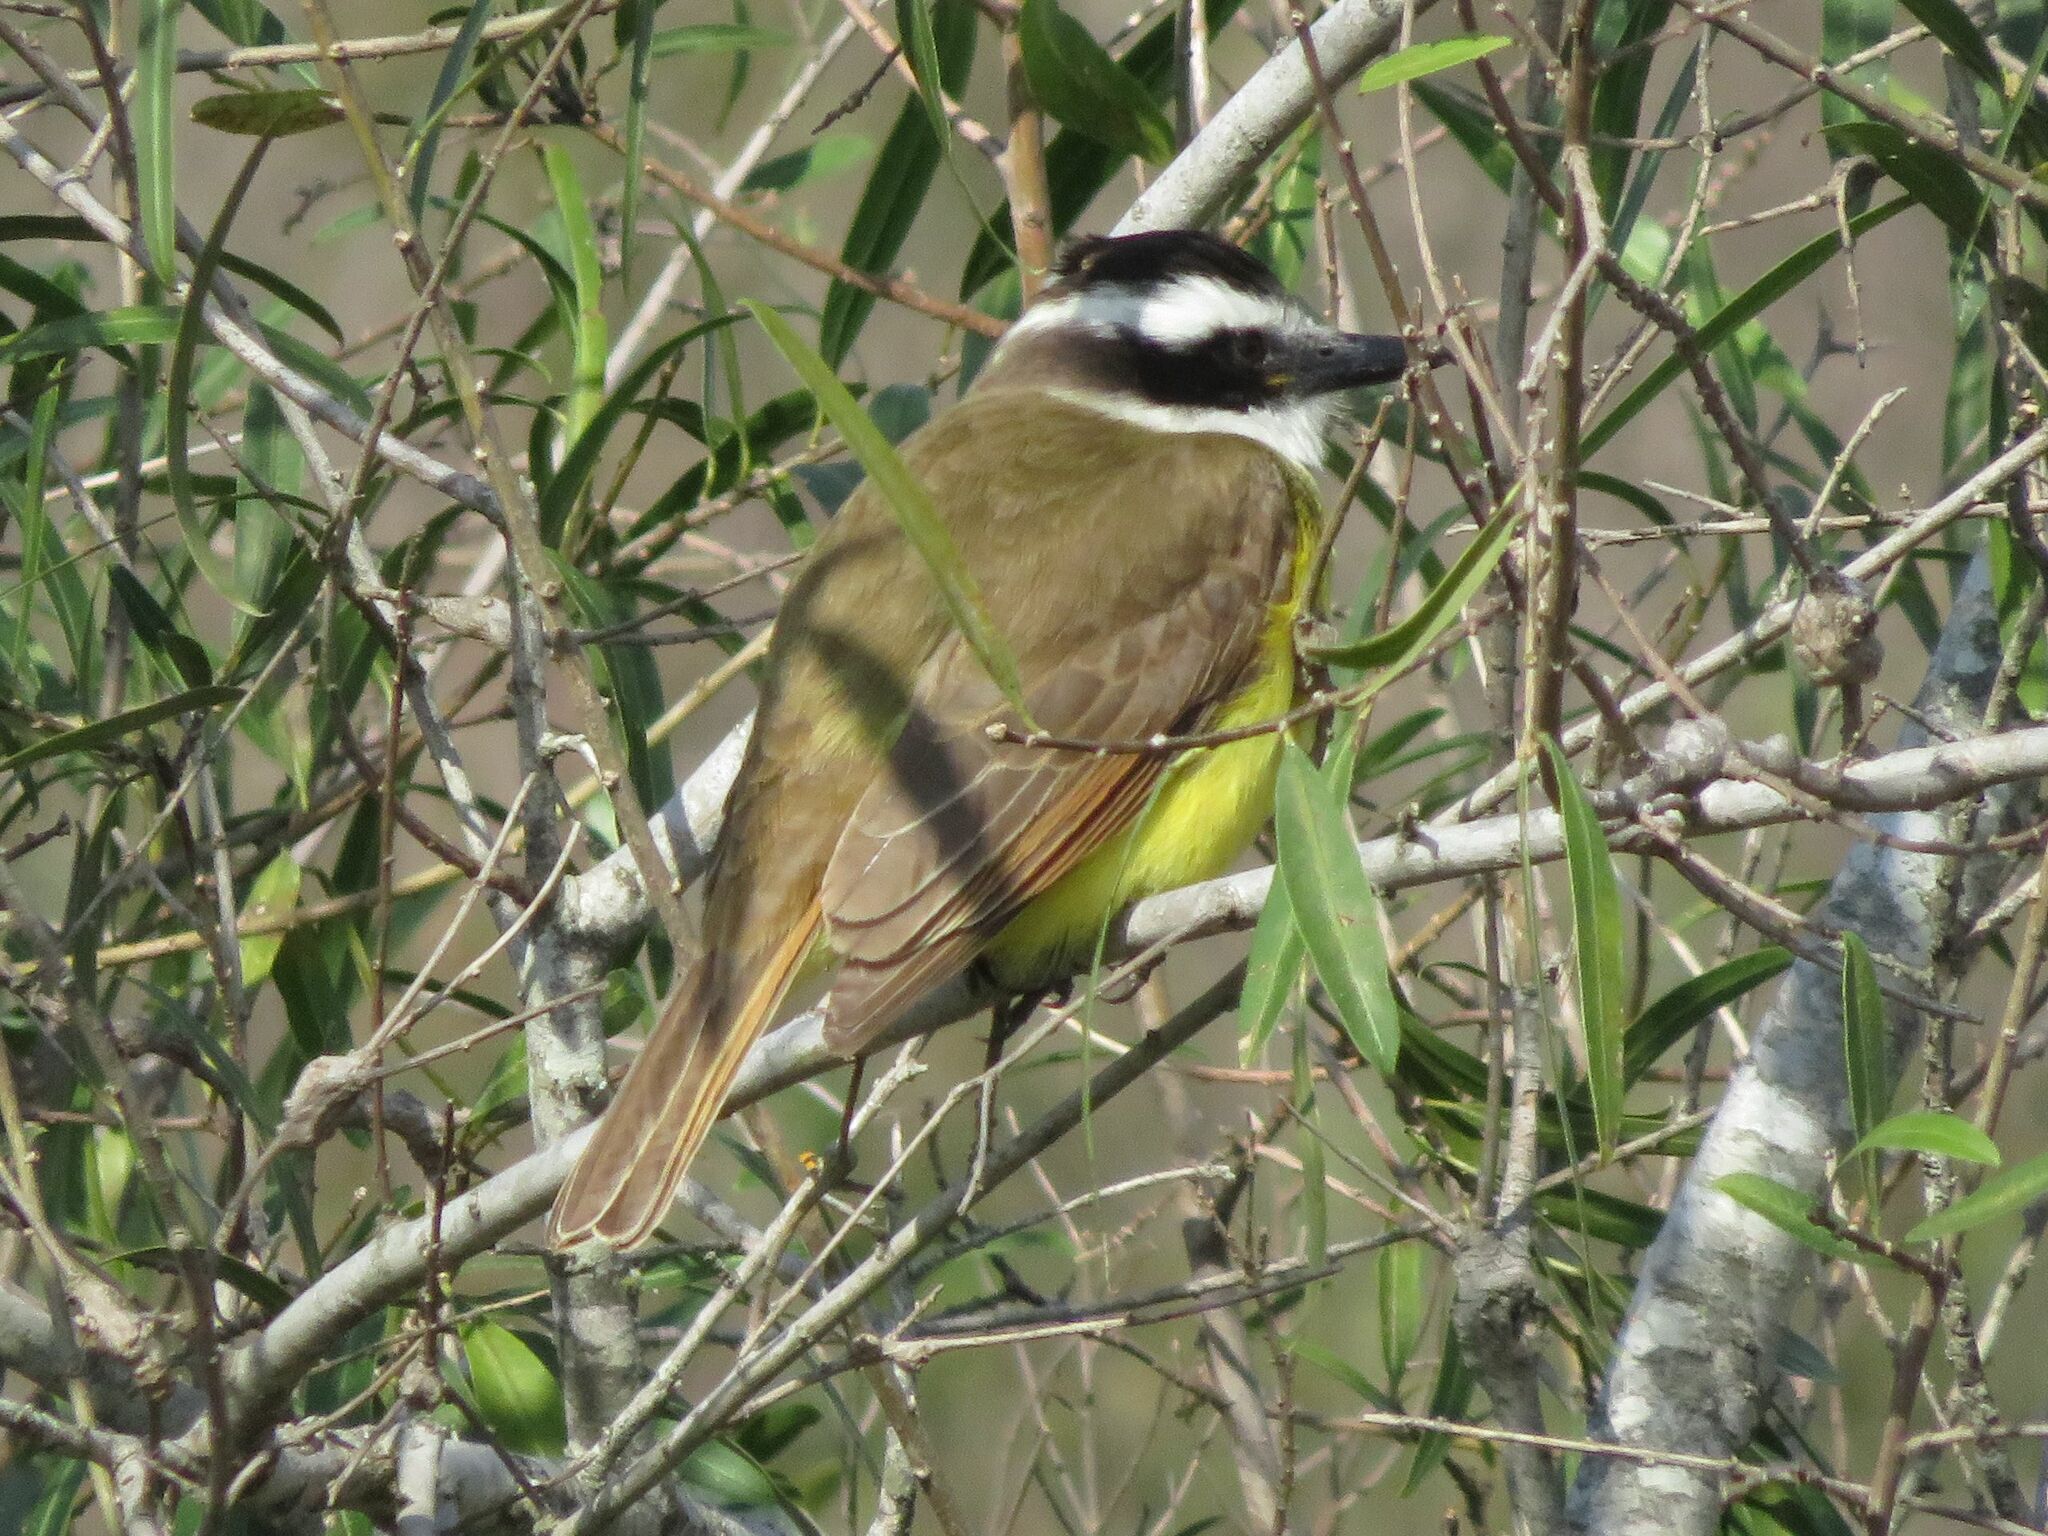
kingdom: Animalia
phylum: Chordata
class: Aves
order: Passeriformes
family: Tyrannidae
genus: Pitangus
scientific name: Pitangus sulphuratus
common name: Great kiskadee
